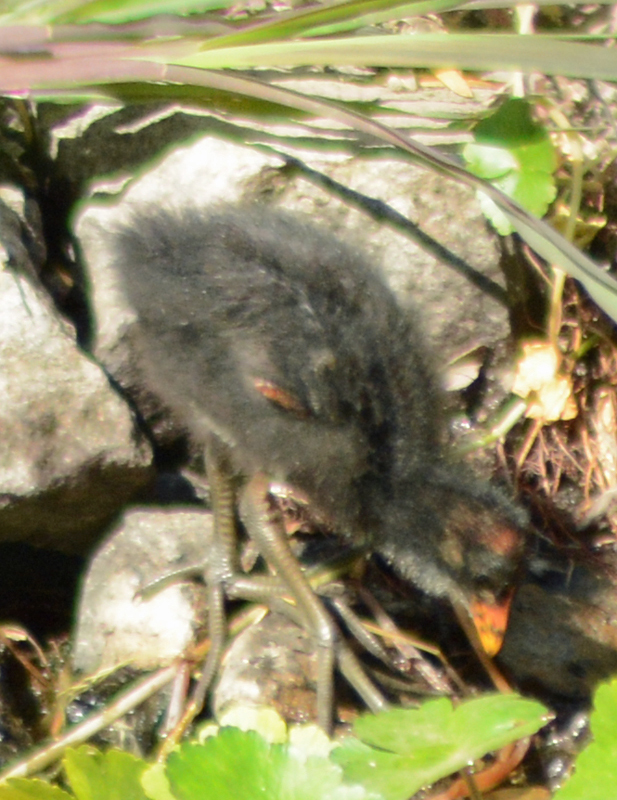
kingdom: Animalia
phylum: Chordata
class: Aves
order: Gruiformes
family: Rallidae
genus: Gallinula
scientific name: Gallinula chloropus
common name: Common moorhen
